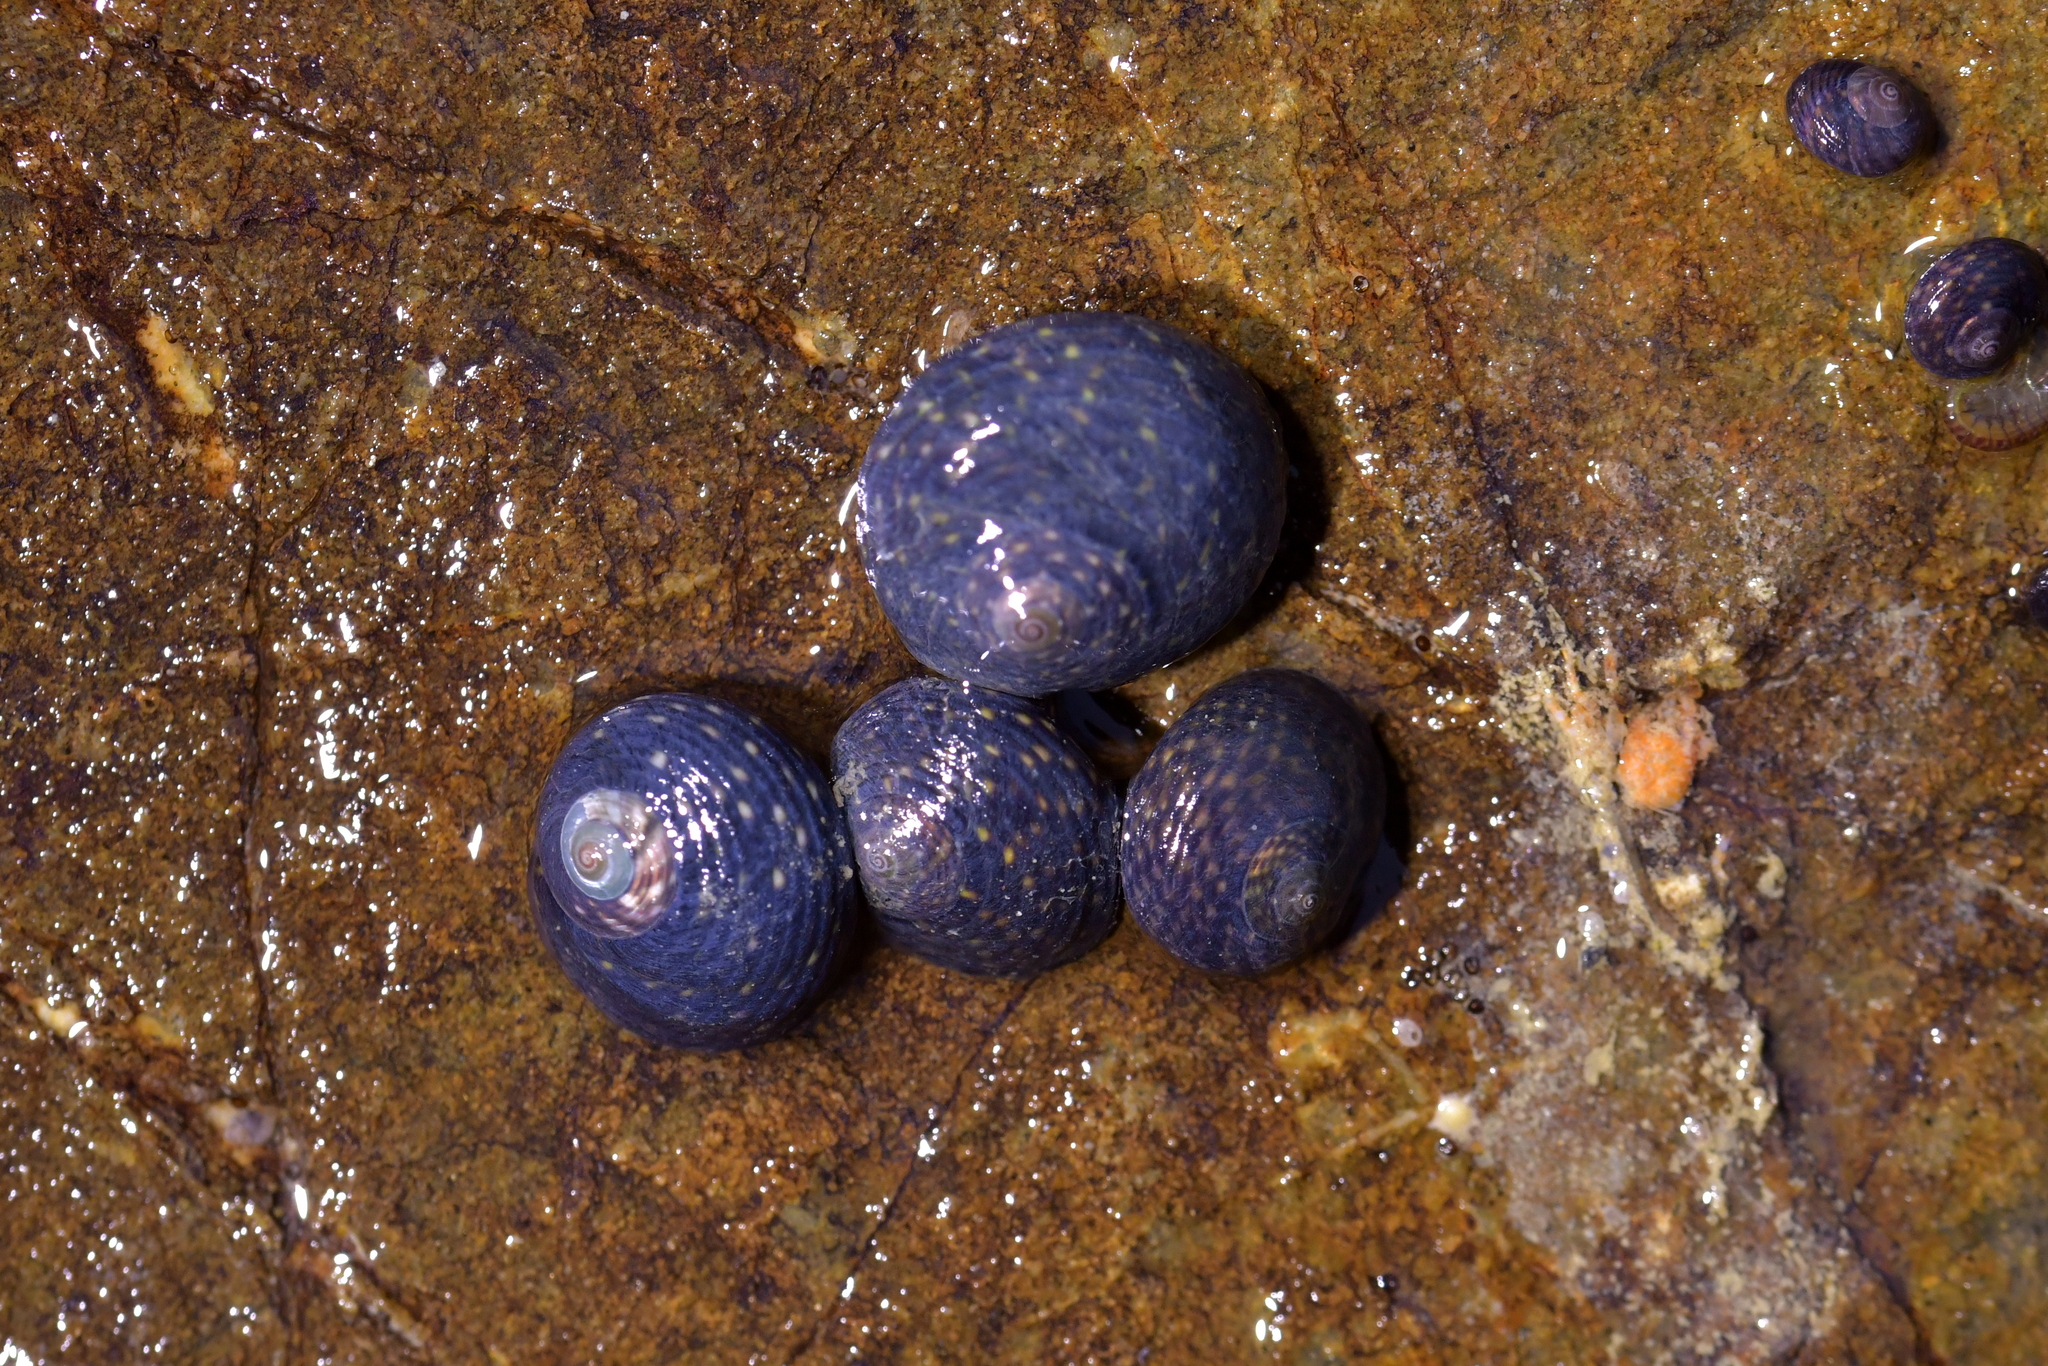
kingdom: Animalia
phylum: Mollusca
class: Gastropoda
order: Trochida
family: Trochidae
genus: Diloma
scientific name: Diloma aridum
